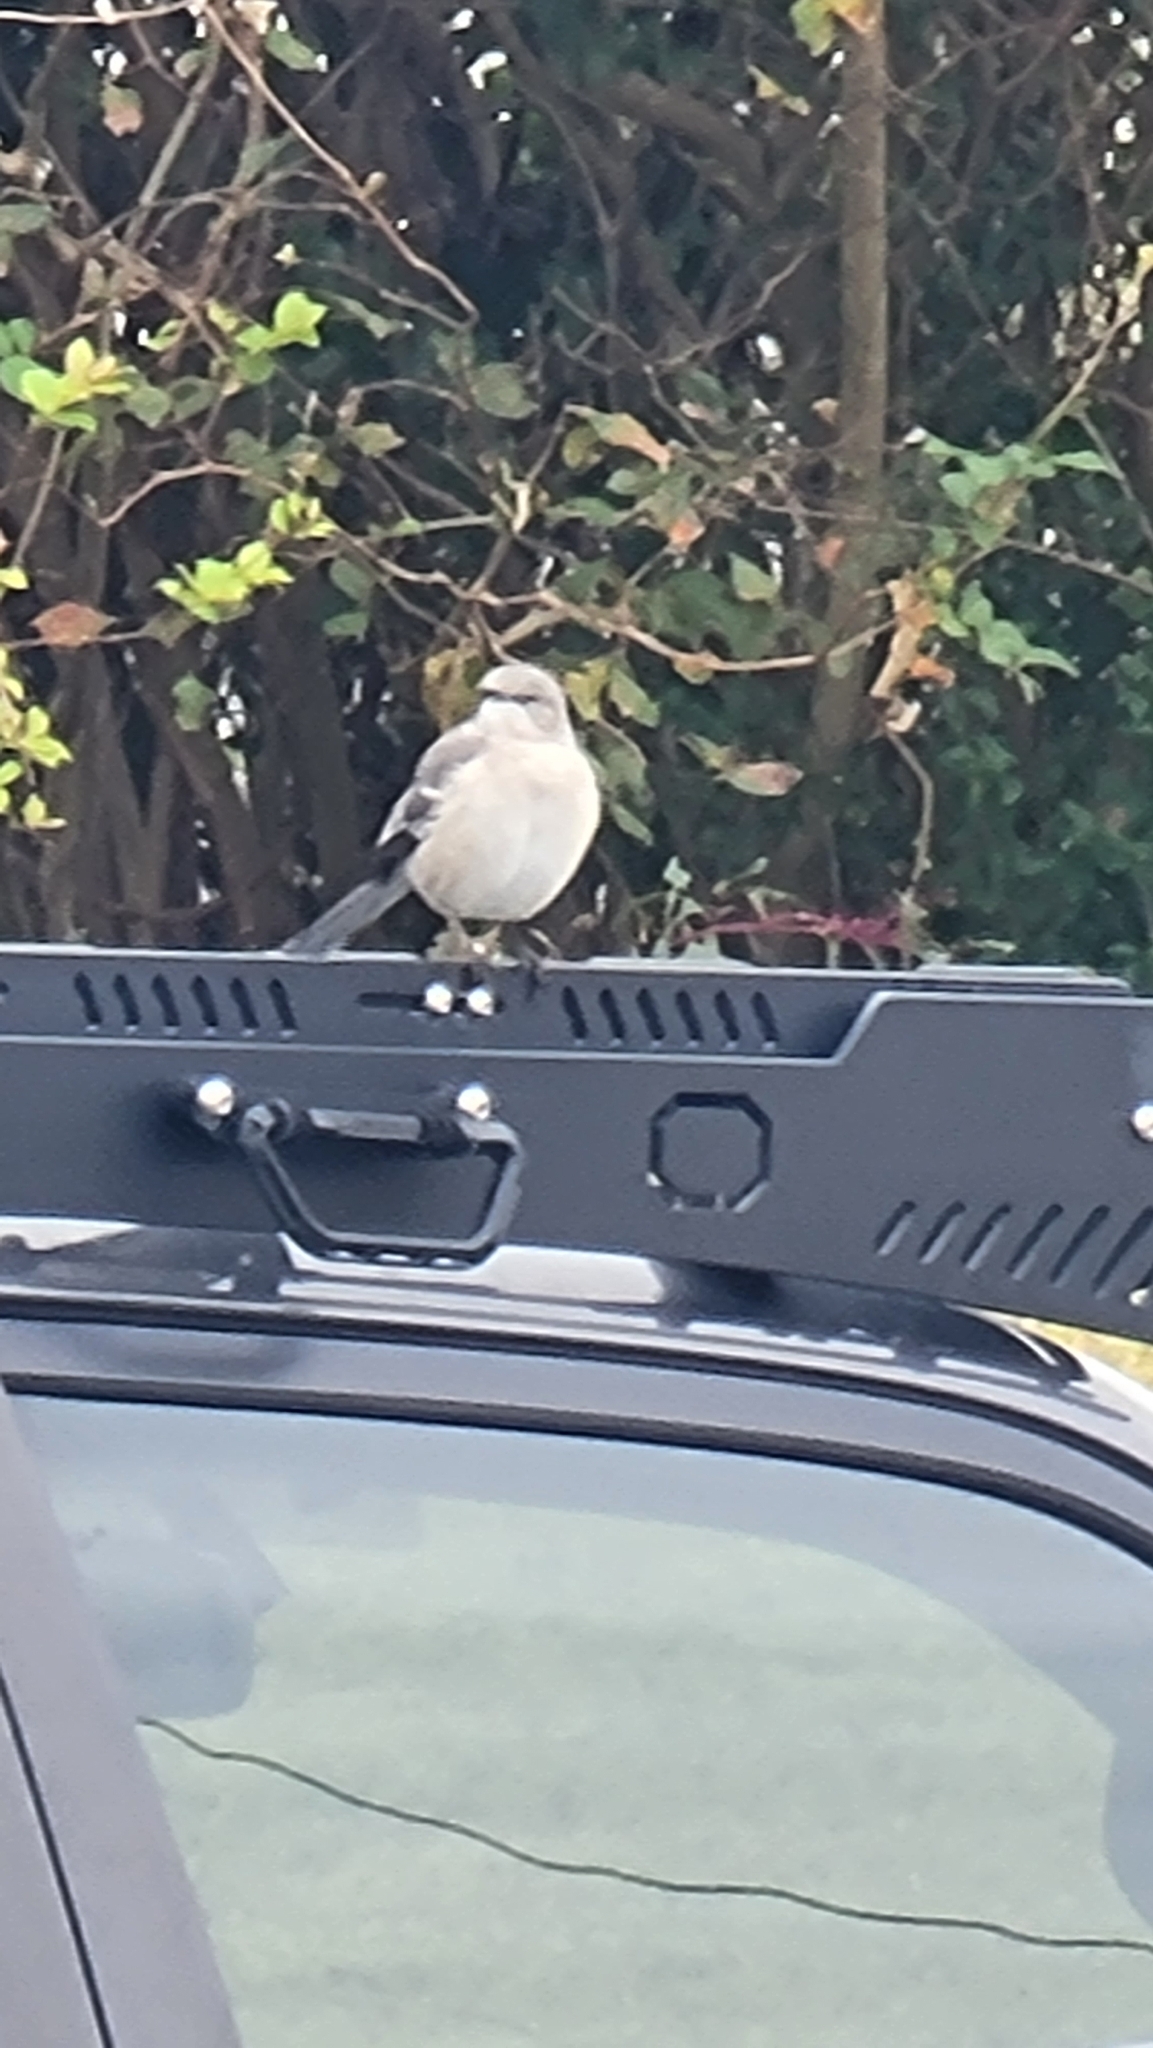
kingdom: Animalia
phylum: Chordata
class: Aves
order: Passeriformes
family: Mimidae
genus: Mimus
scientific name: Mimus polyglottos
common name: Northern mockingbird
